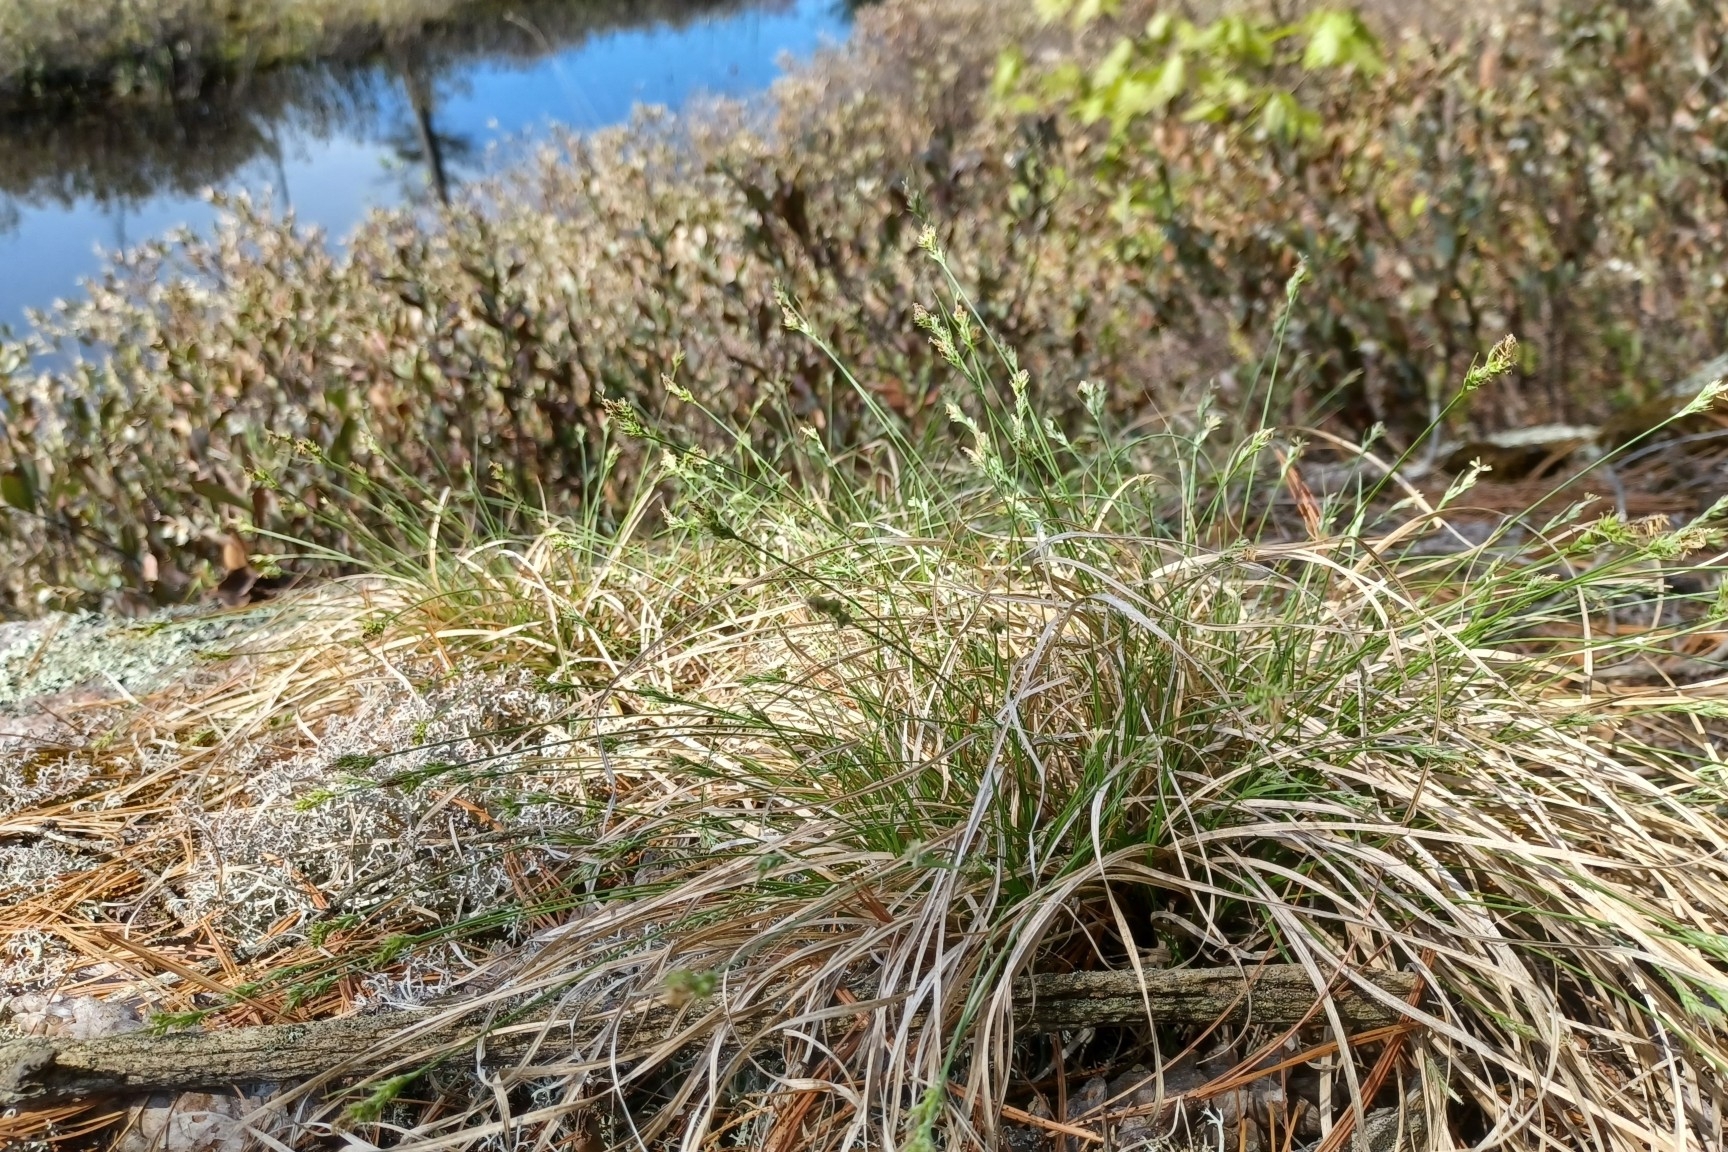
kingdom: Plantae
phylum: Tracheophyta
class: Liliopsida
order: Poales
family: Cyperaceae
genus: Carex
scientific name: Carex albicans
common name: Bellow-beaked sedge
